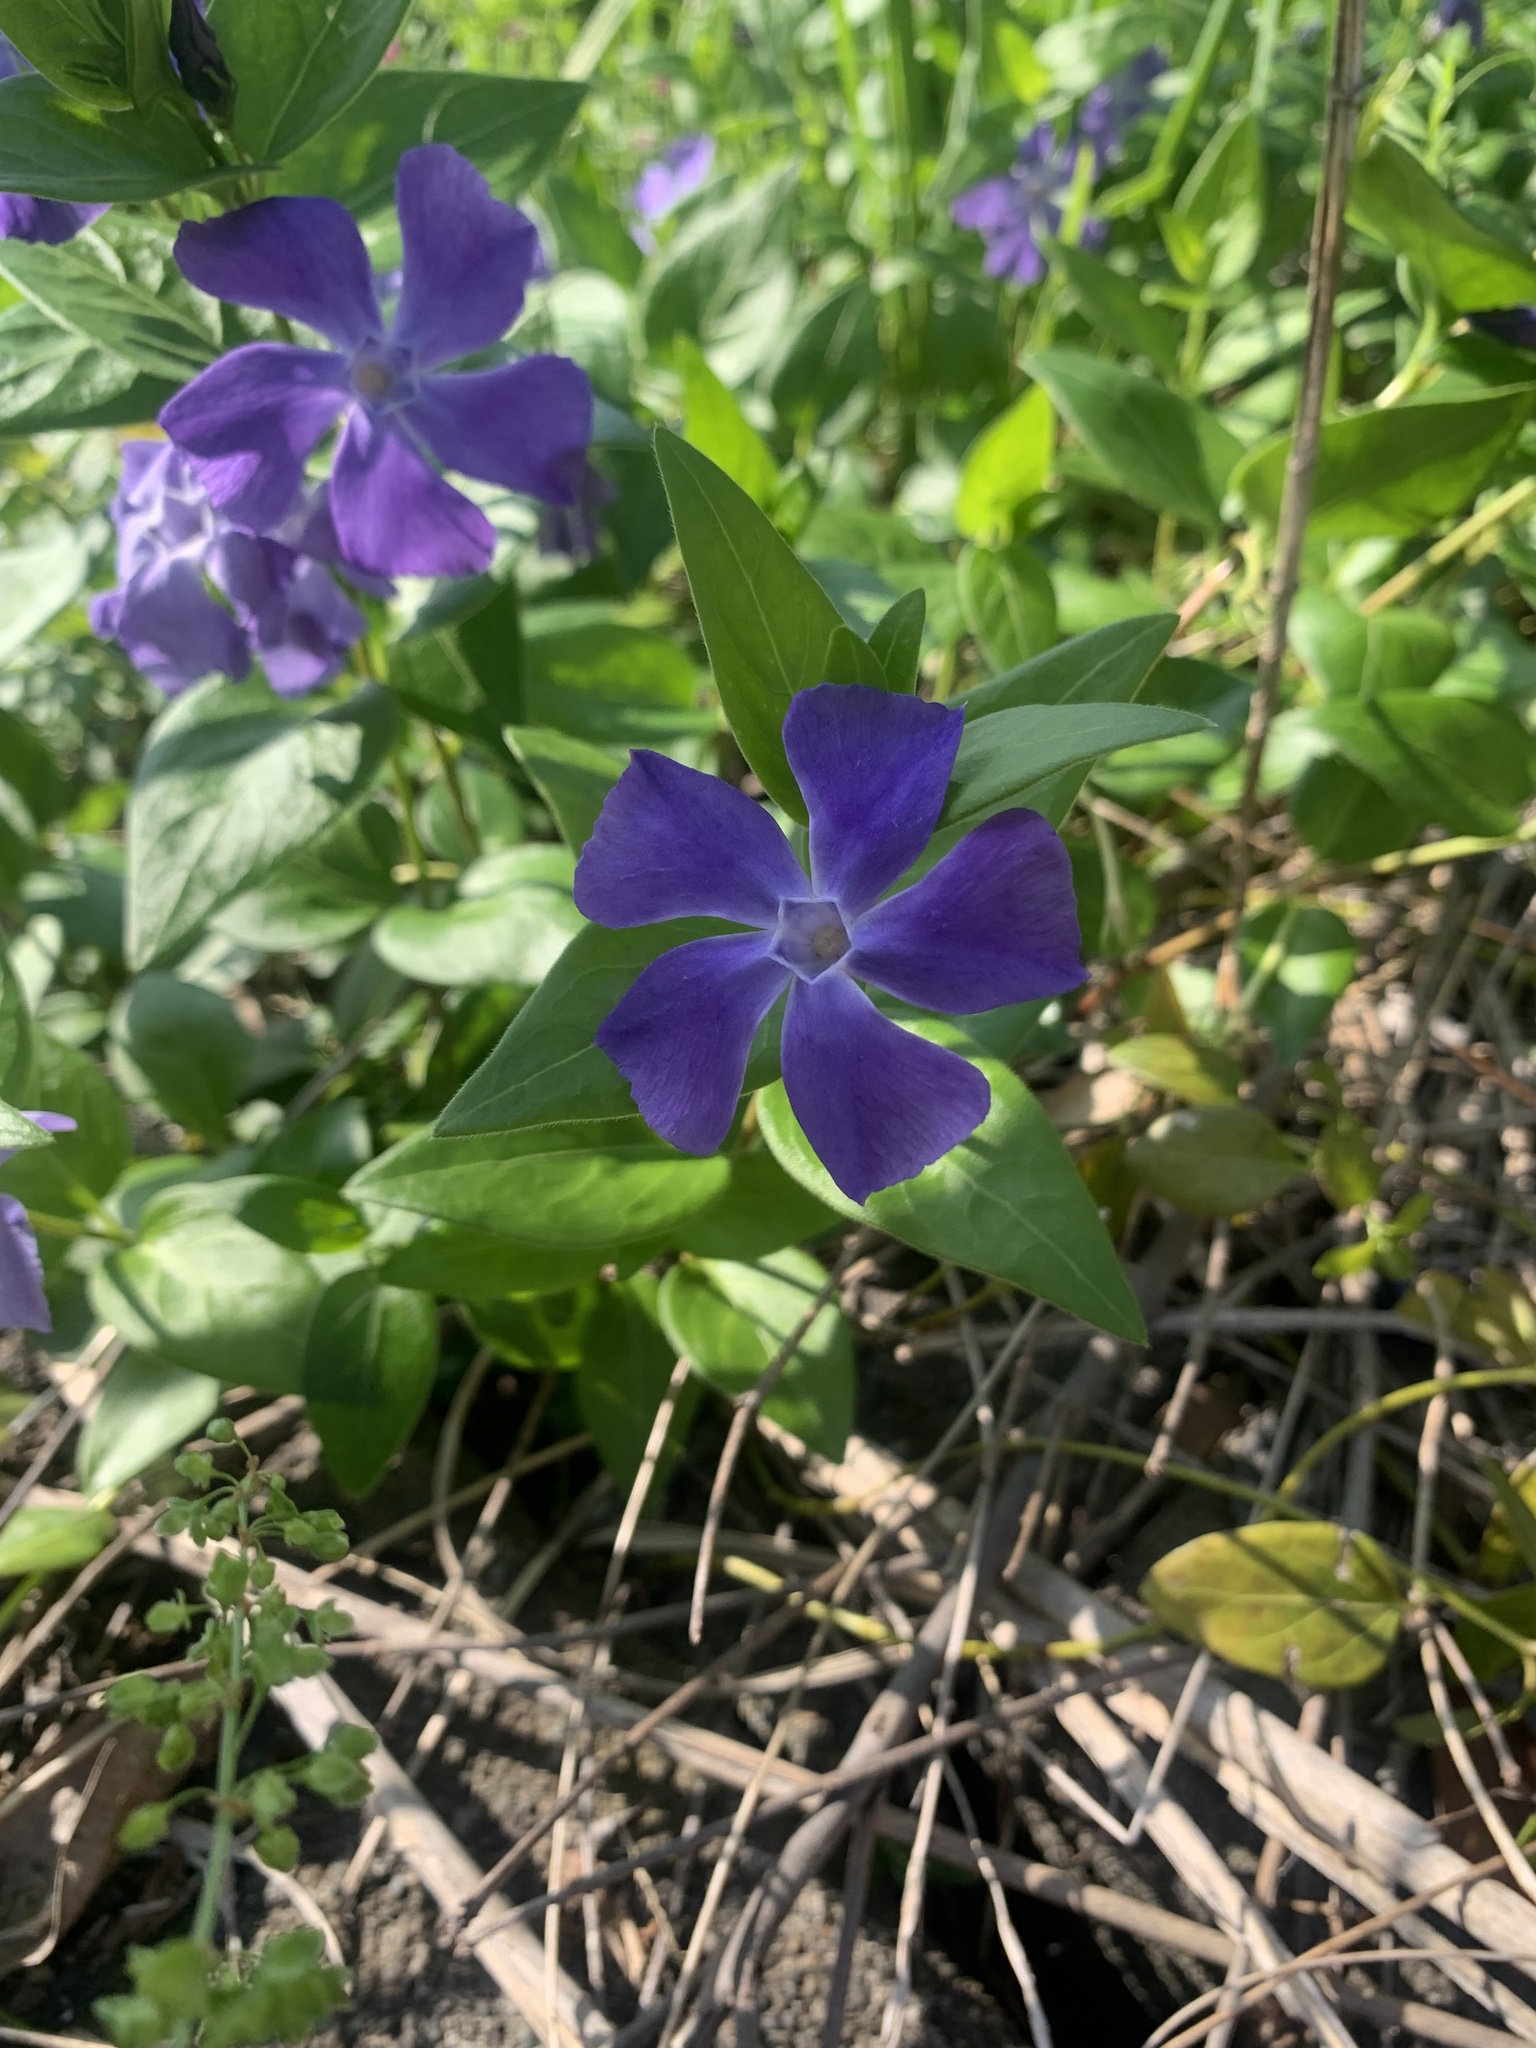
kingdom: Plantae
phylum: Tracheophyta
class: Magnoliopsida
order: Gentianales
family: Apocynaceae
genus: Vinca
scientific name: Vinca major
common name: Greater periwinkle
